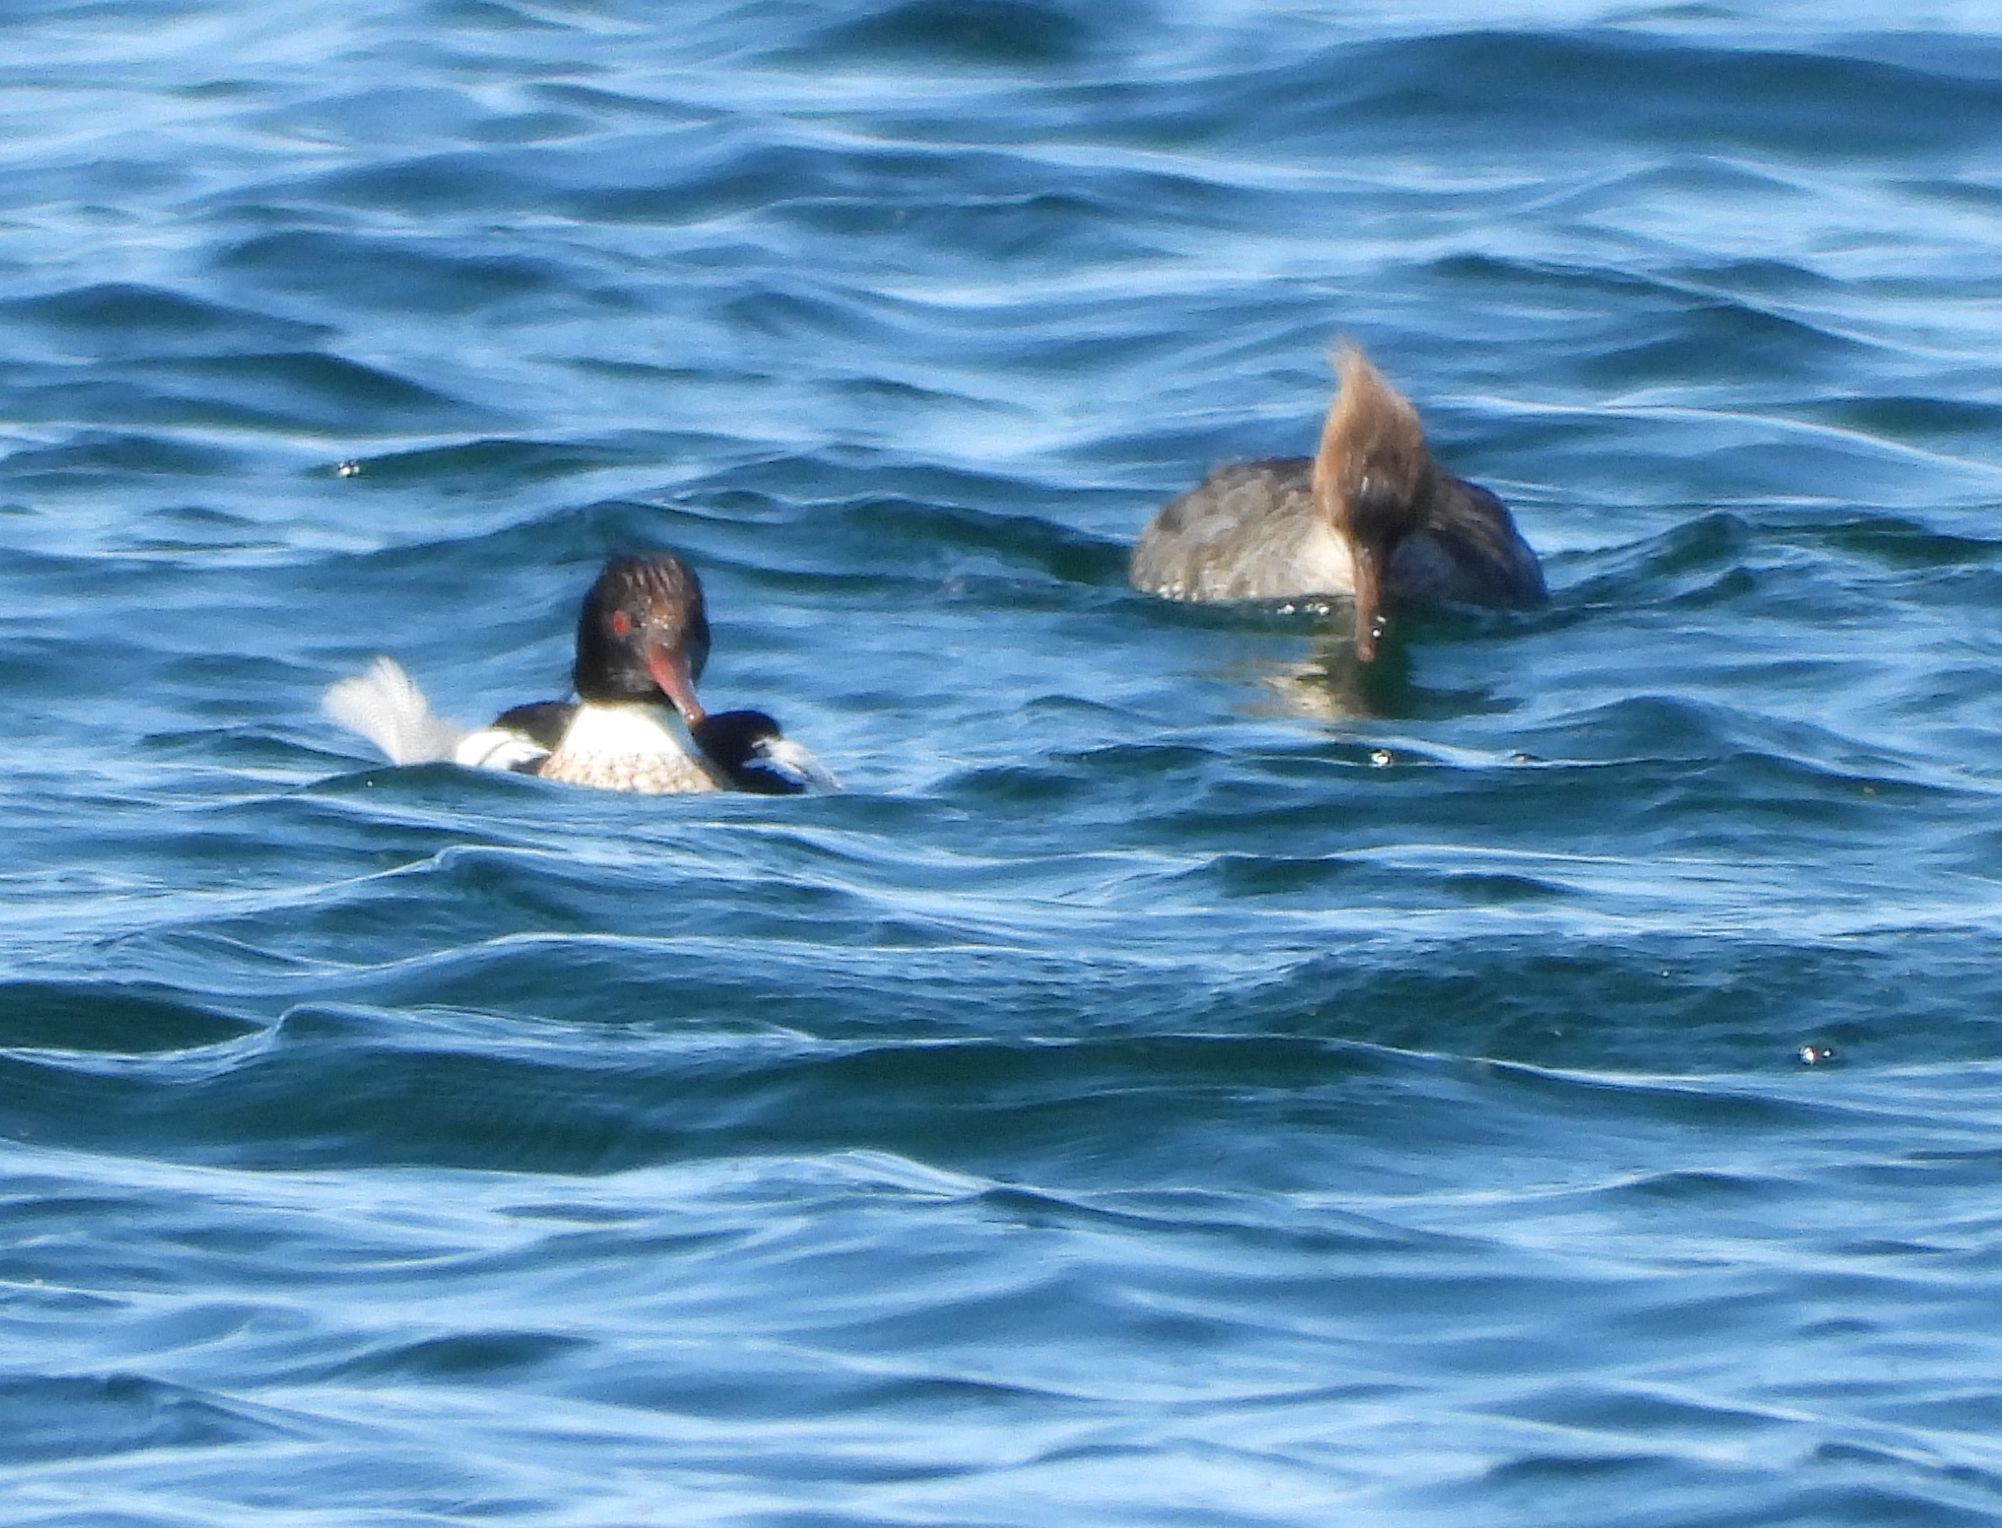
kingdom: Animalia
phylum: Chordata
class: Aves
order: Anseriformes
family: Anatidae
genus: Mergus
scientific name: Mergus serrator
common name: Red-breasted merganser
